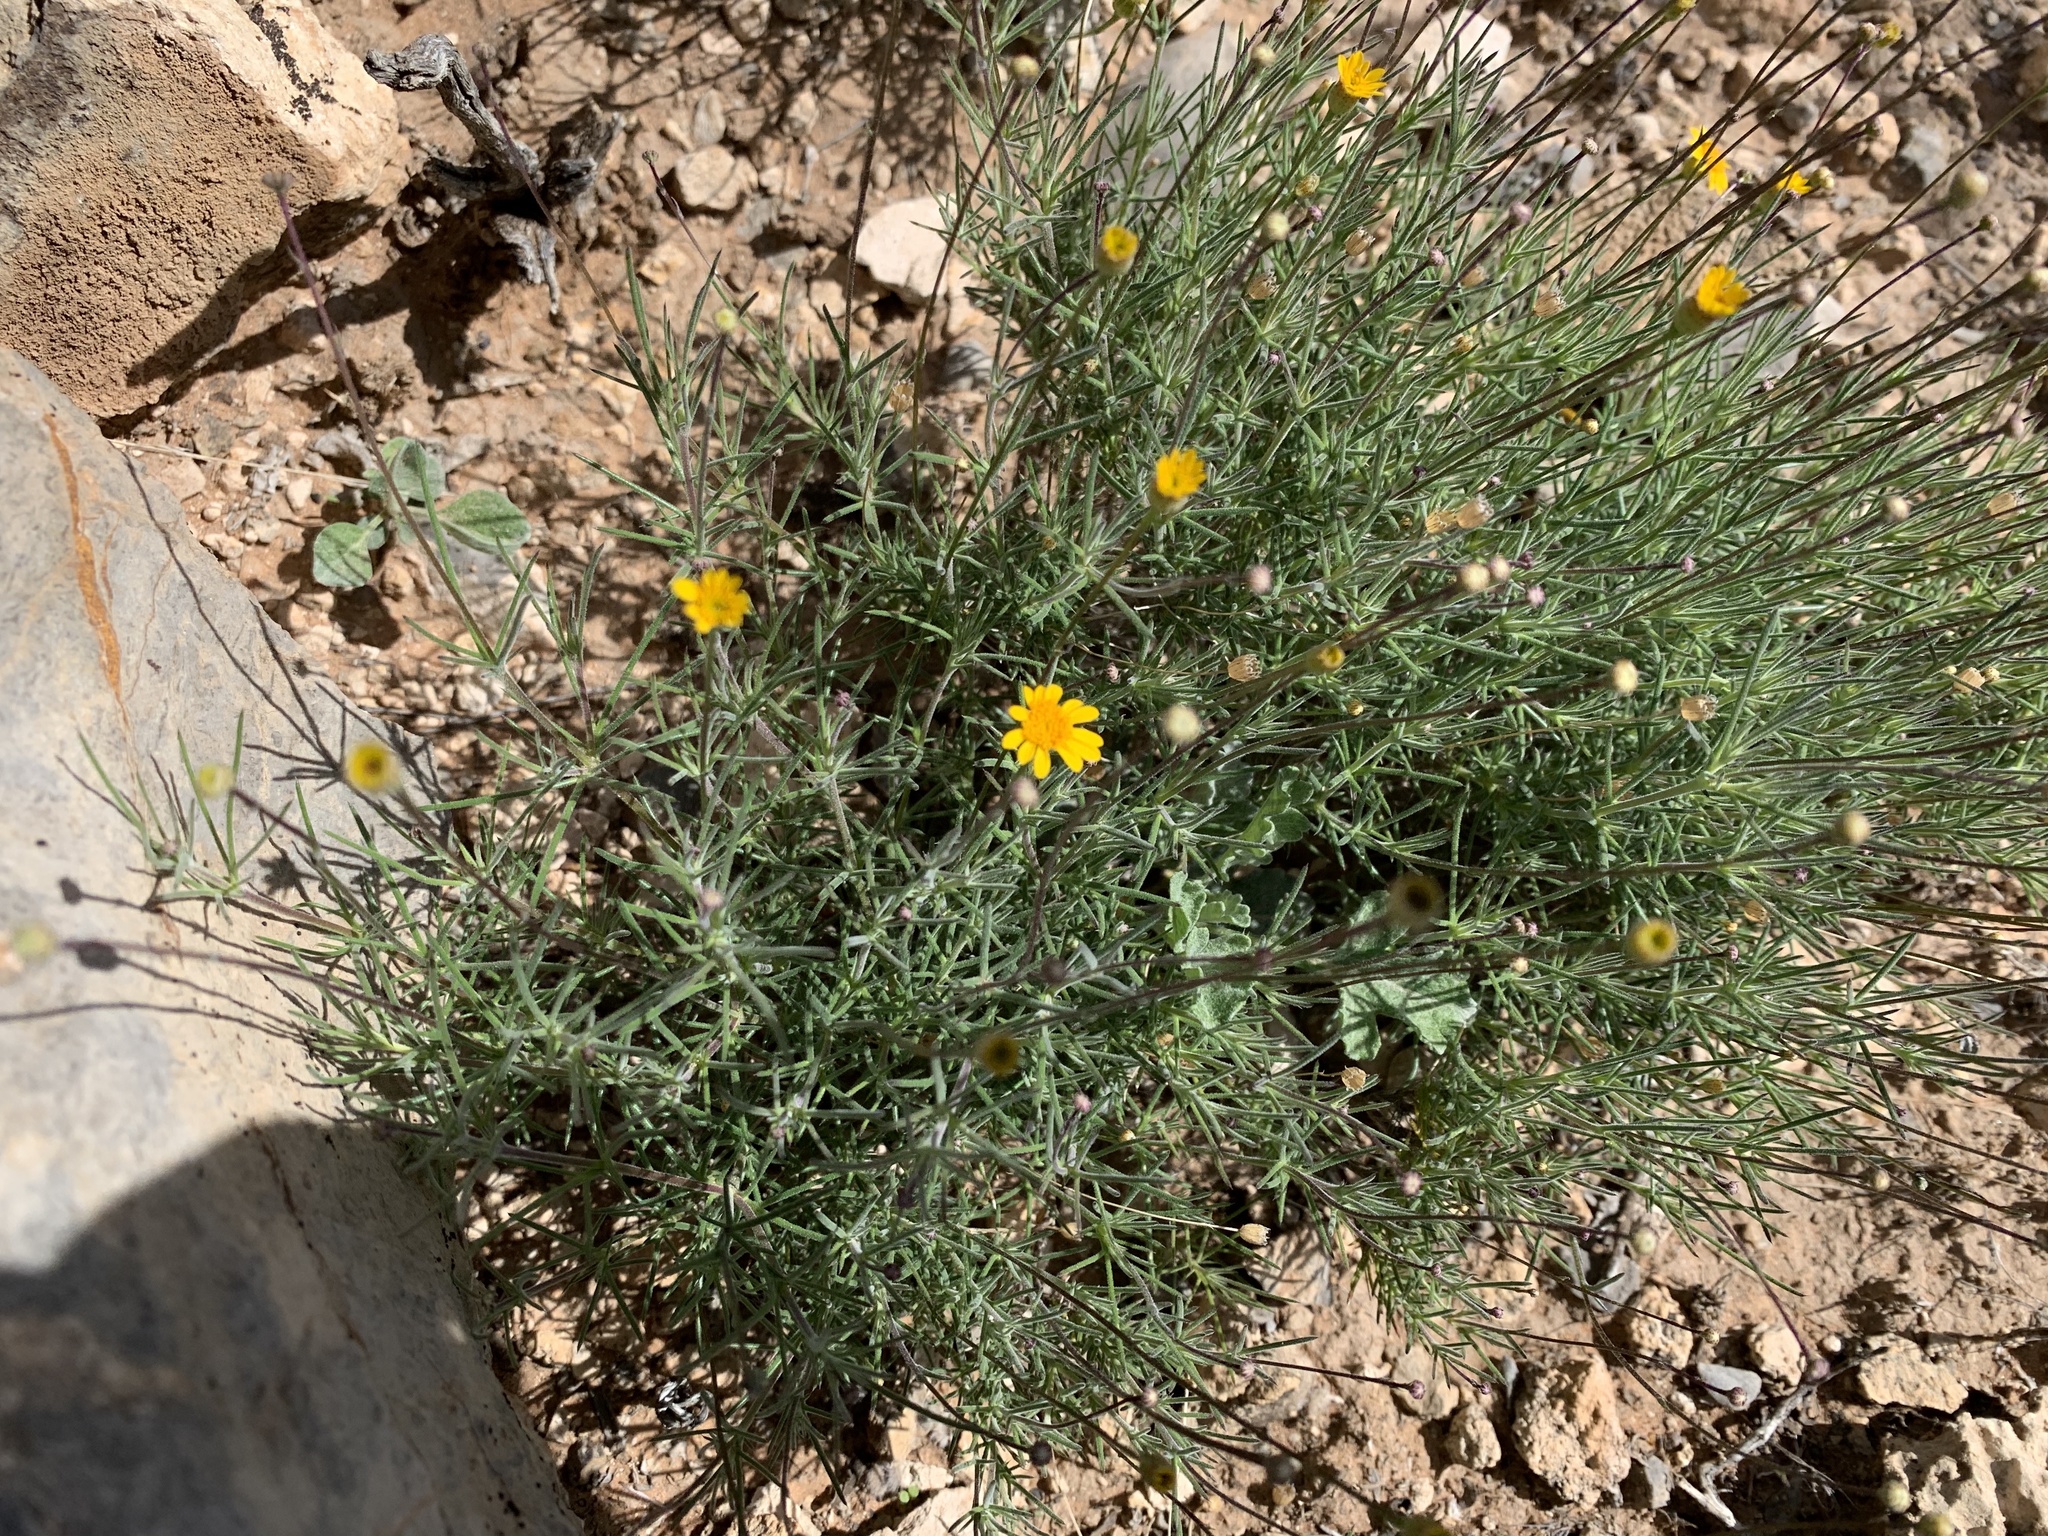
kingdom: Plantae
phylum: Tracheophyta
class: Magnoliopsida
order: Asterales
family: Asteraceae
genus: Thymophylla
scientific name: Thymophylla pentachaeta
